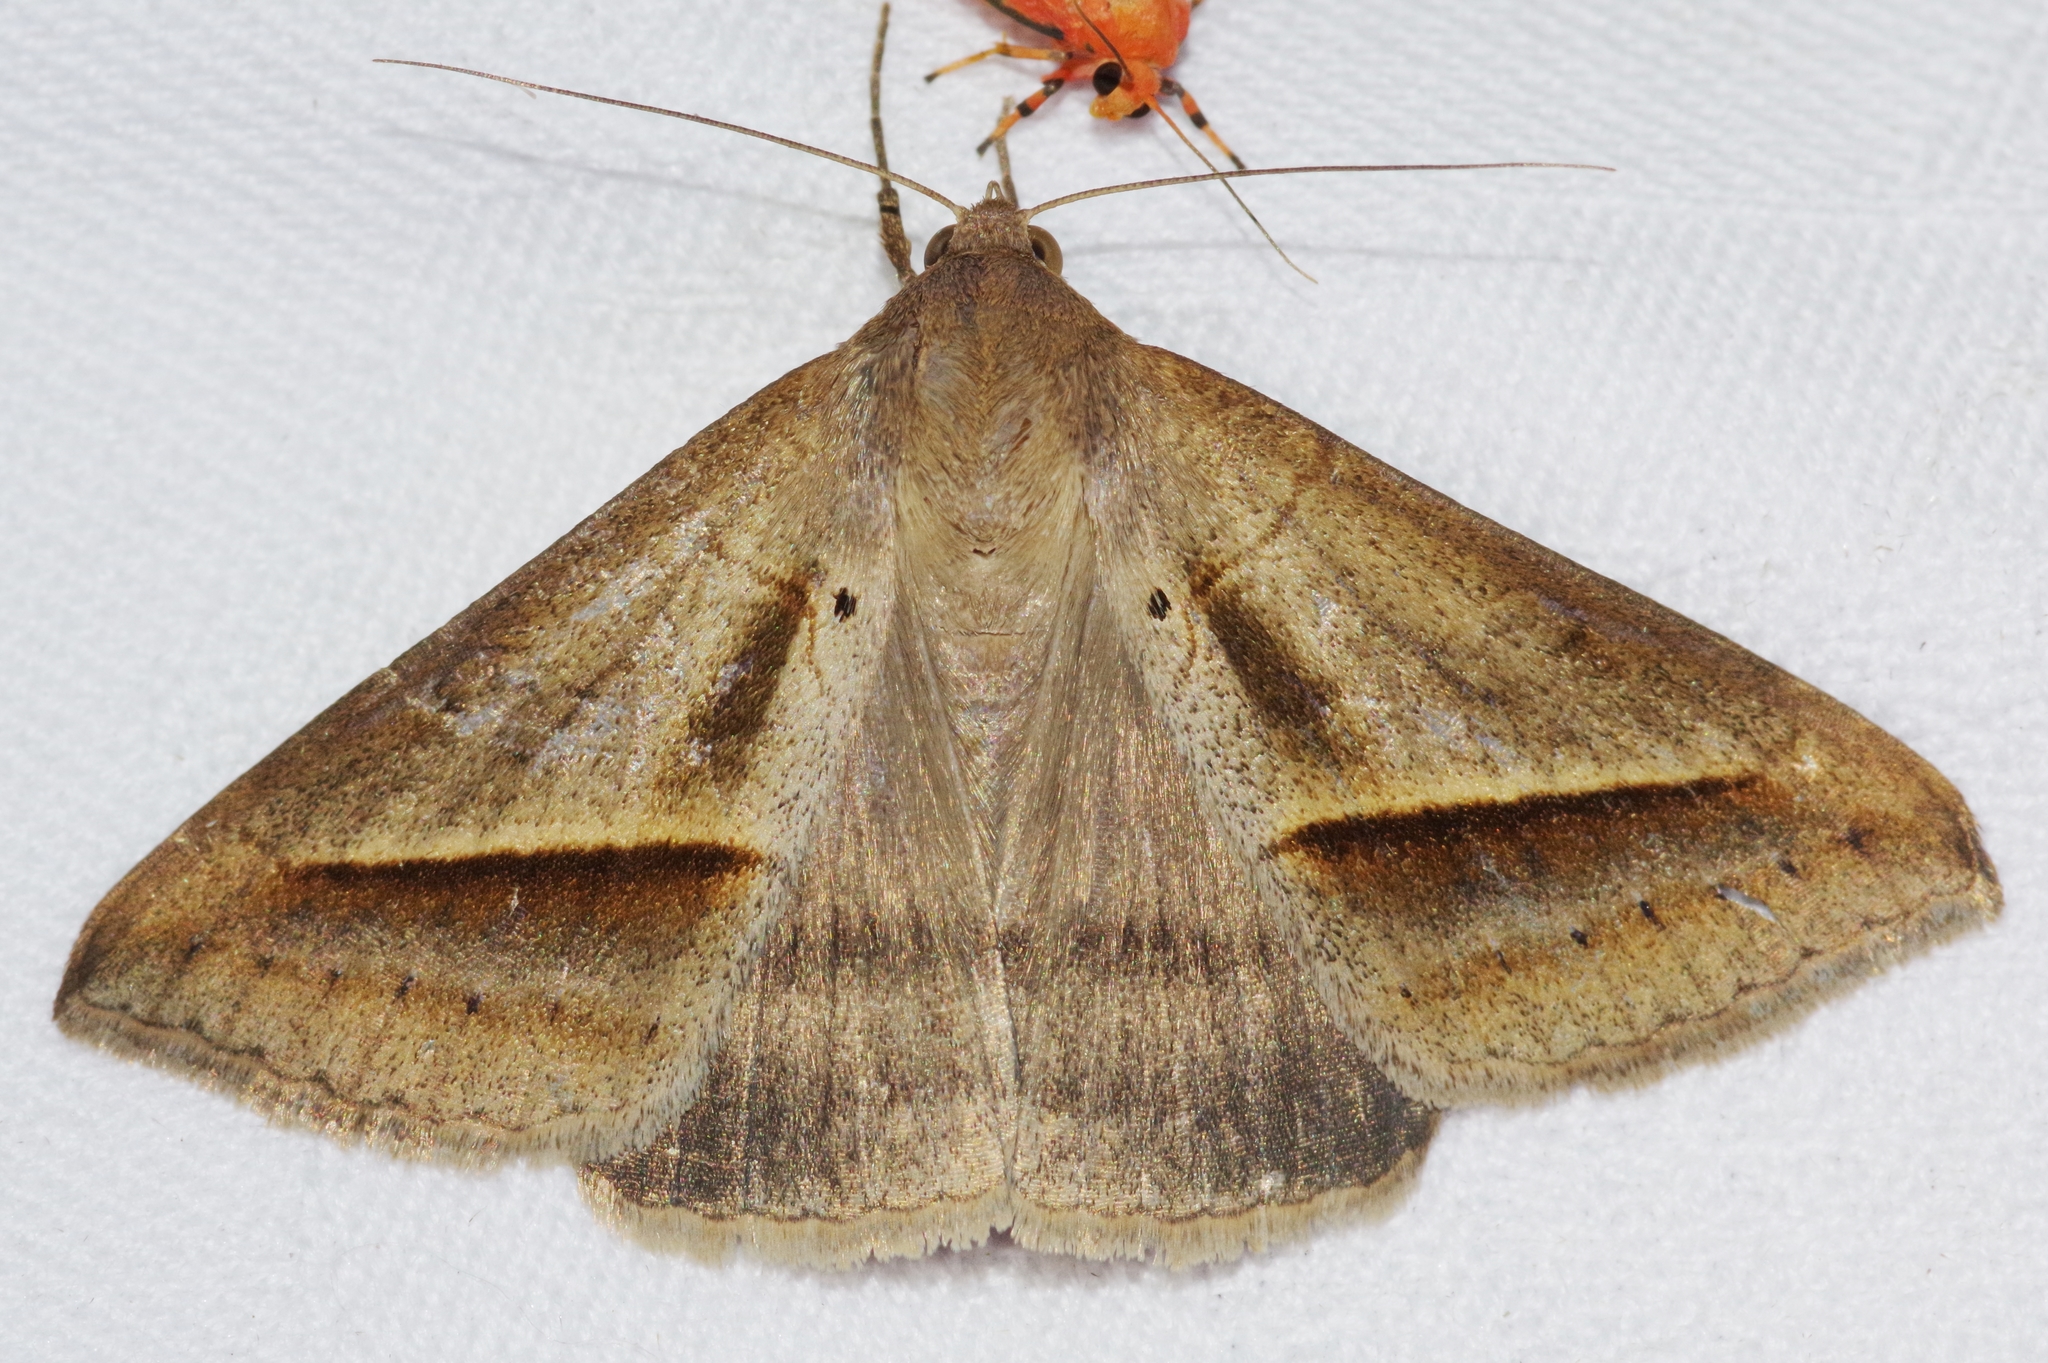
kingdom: Animalia
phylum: Arthropoda
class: Insecta
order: Lepidoptera
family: Erebidae
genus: Mocis
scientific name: Mocis frugalis
